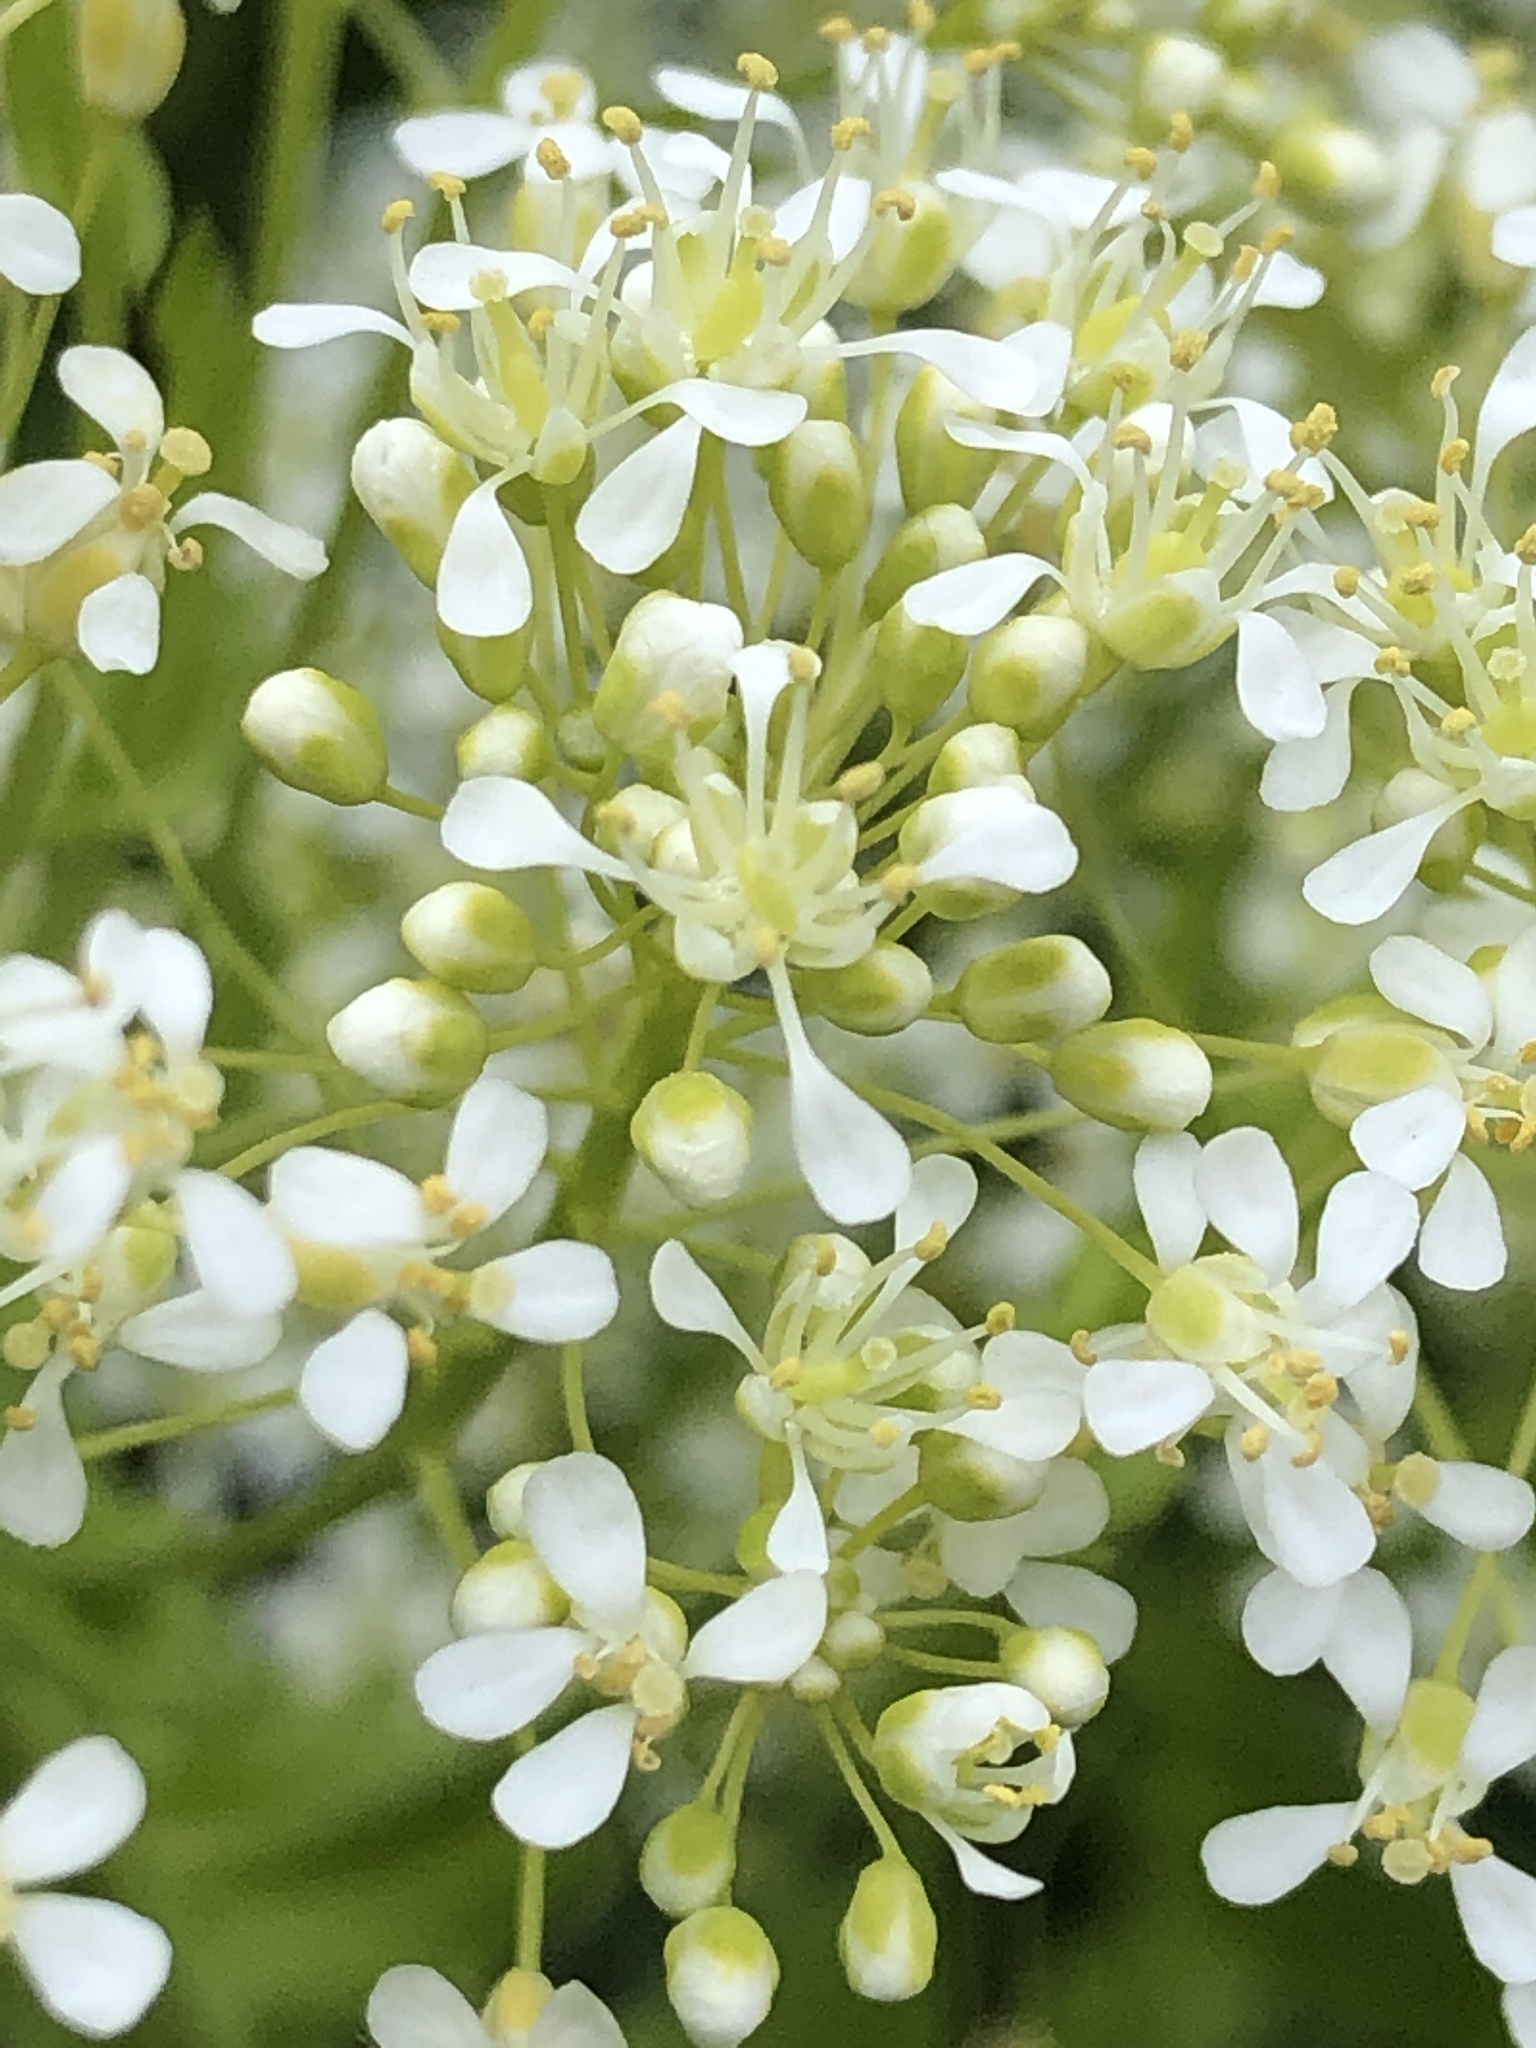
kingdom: Plantae
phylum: Tracheophyta
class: Magnoliopsida
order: Brassicales
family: Brassicaceae
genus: Lepidium
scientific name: Lepidium draba
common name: Hoary cress
